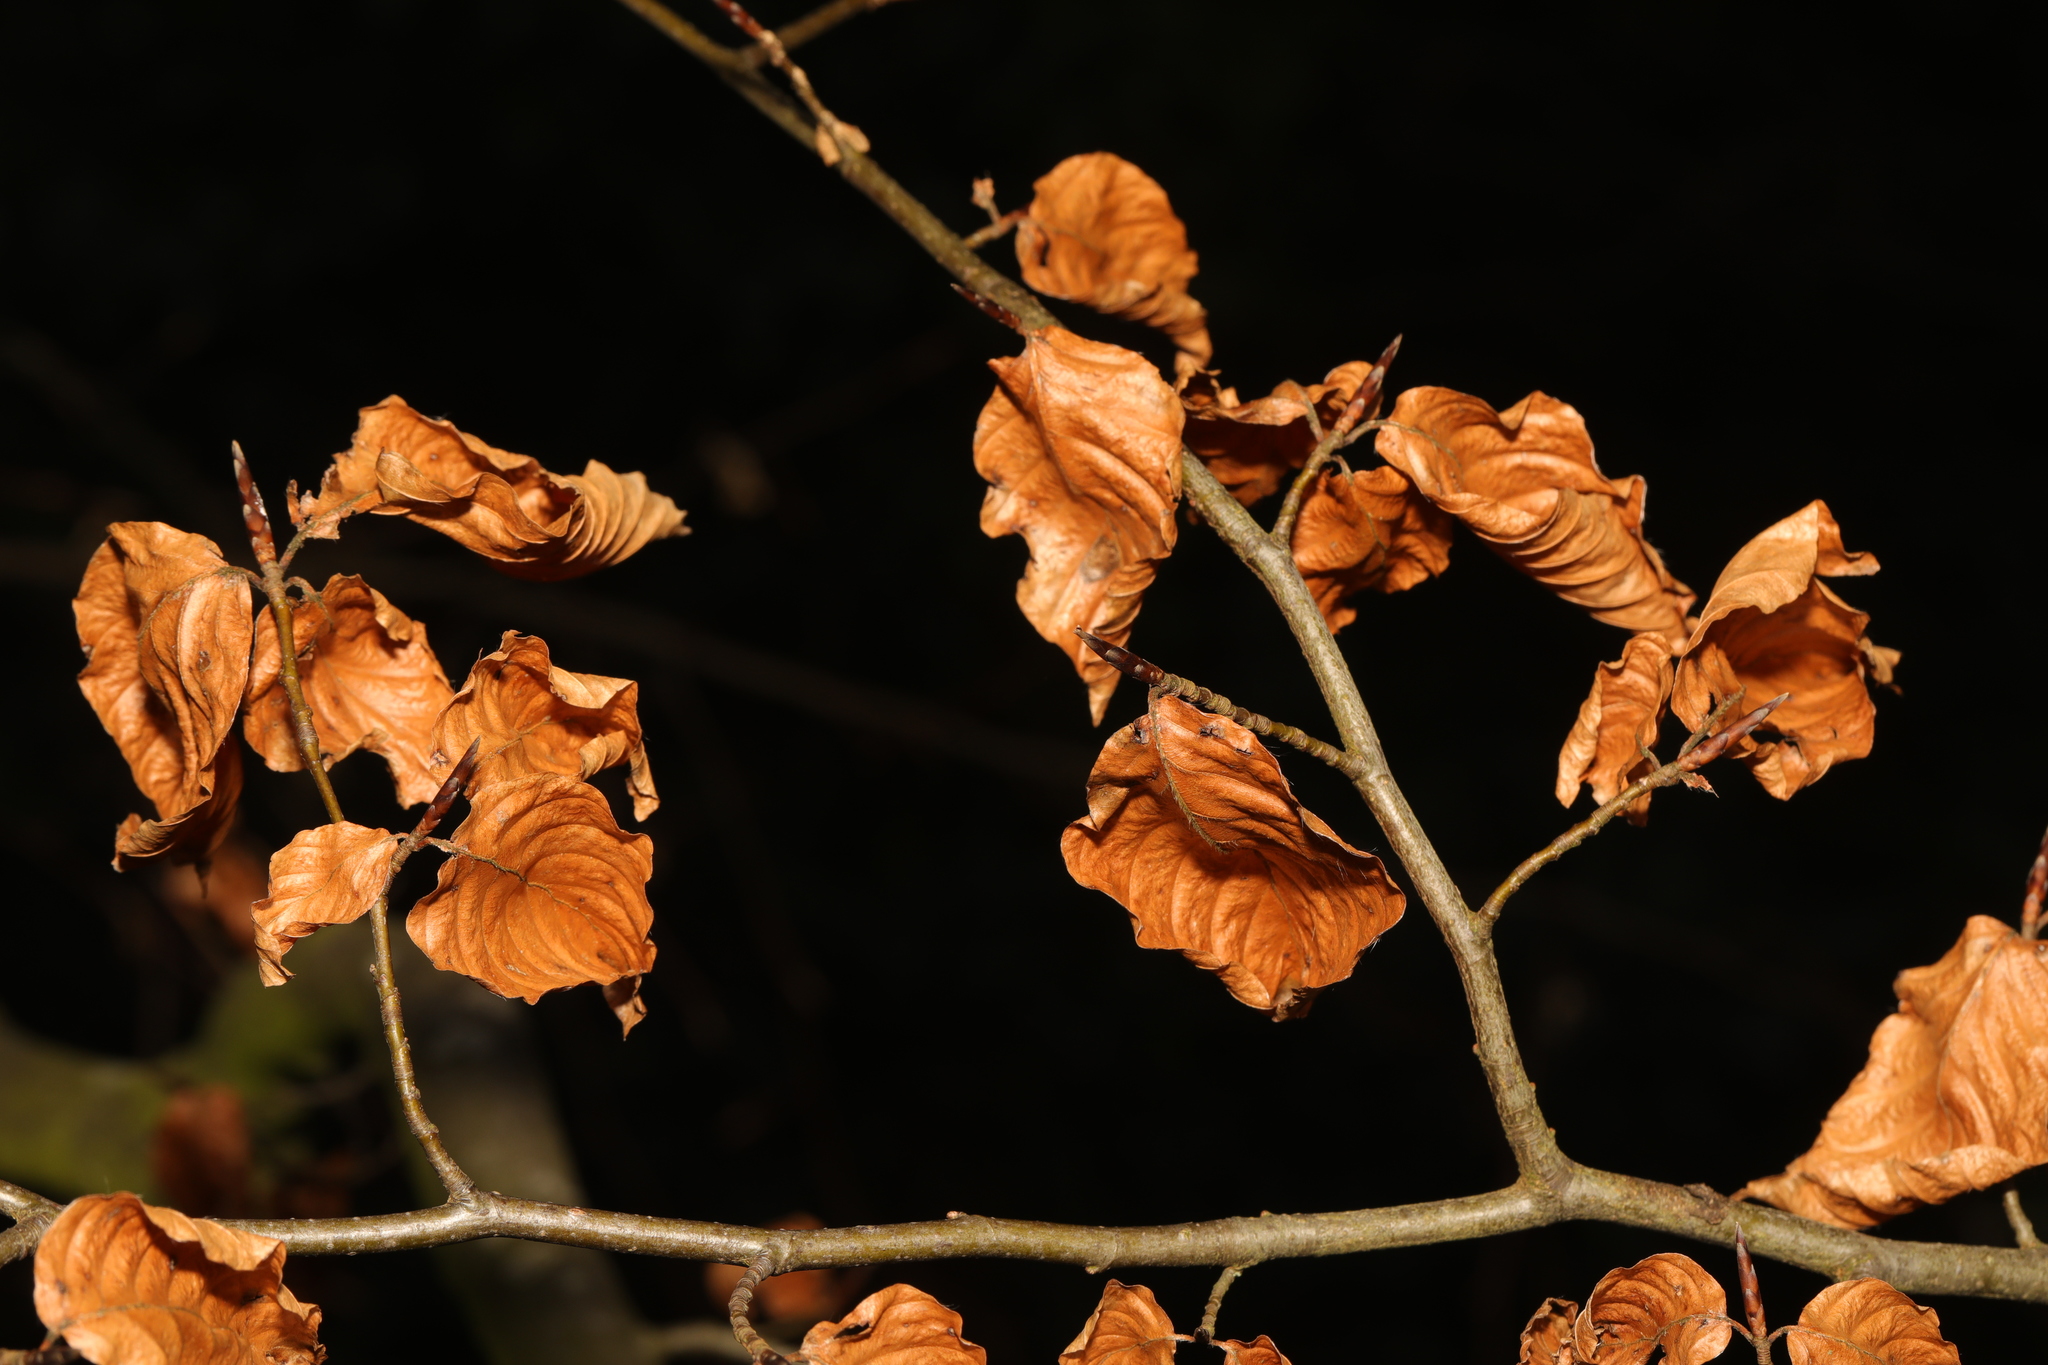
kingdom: Plantae
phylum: Tracheophyta
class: Magnoliopsida
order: Fagales
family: Fagaceae
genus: Fagus
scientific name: Fagus sylvatica
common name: Beech
